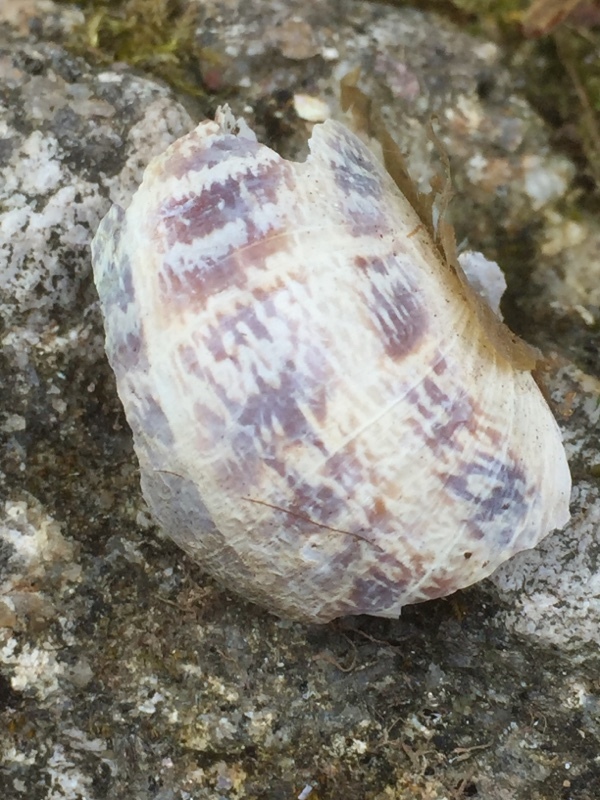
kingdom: Animalia
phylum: Mollusca
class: Gastropoda
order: Stylommatophora
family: Helicidae
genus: Cornu
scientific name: Cornu aspersum
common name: Brown garden snail
